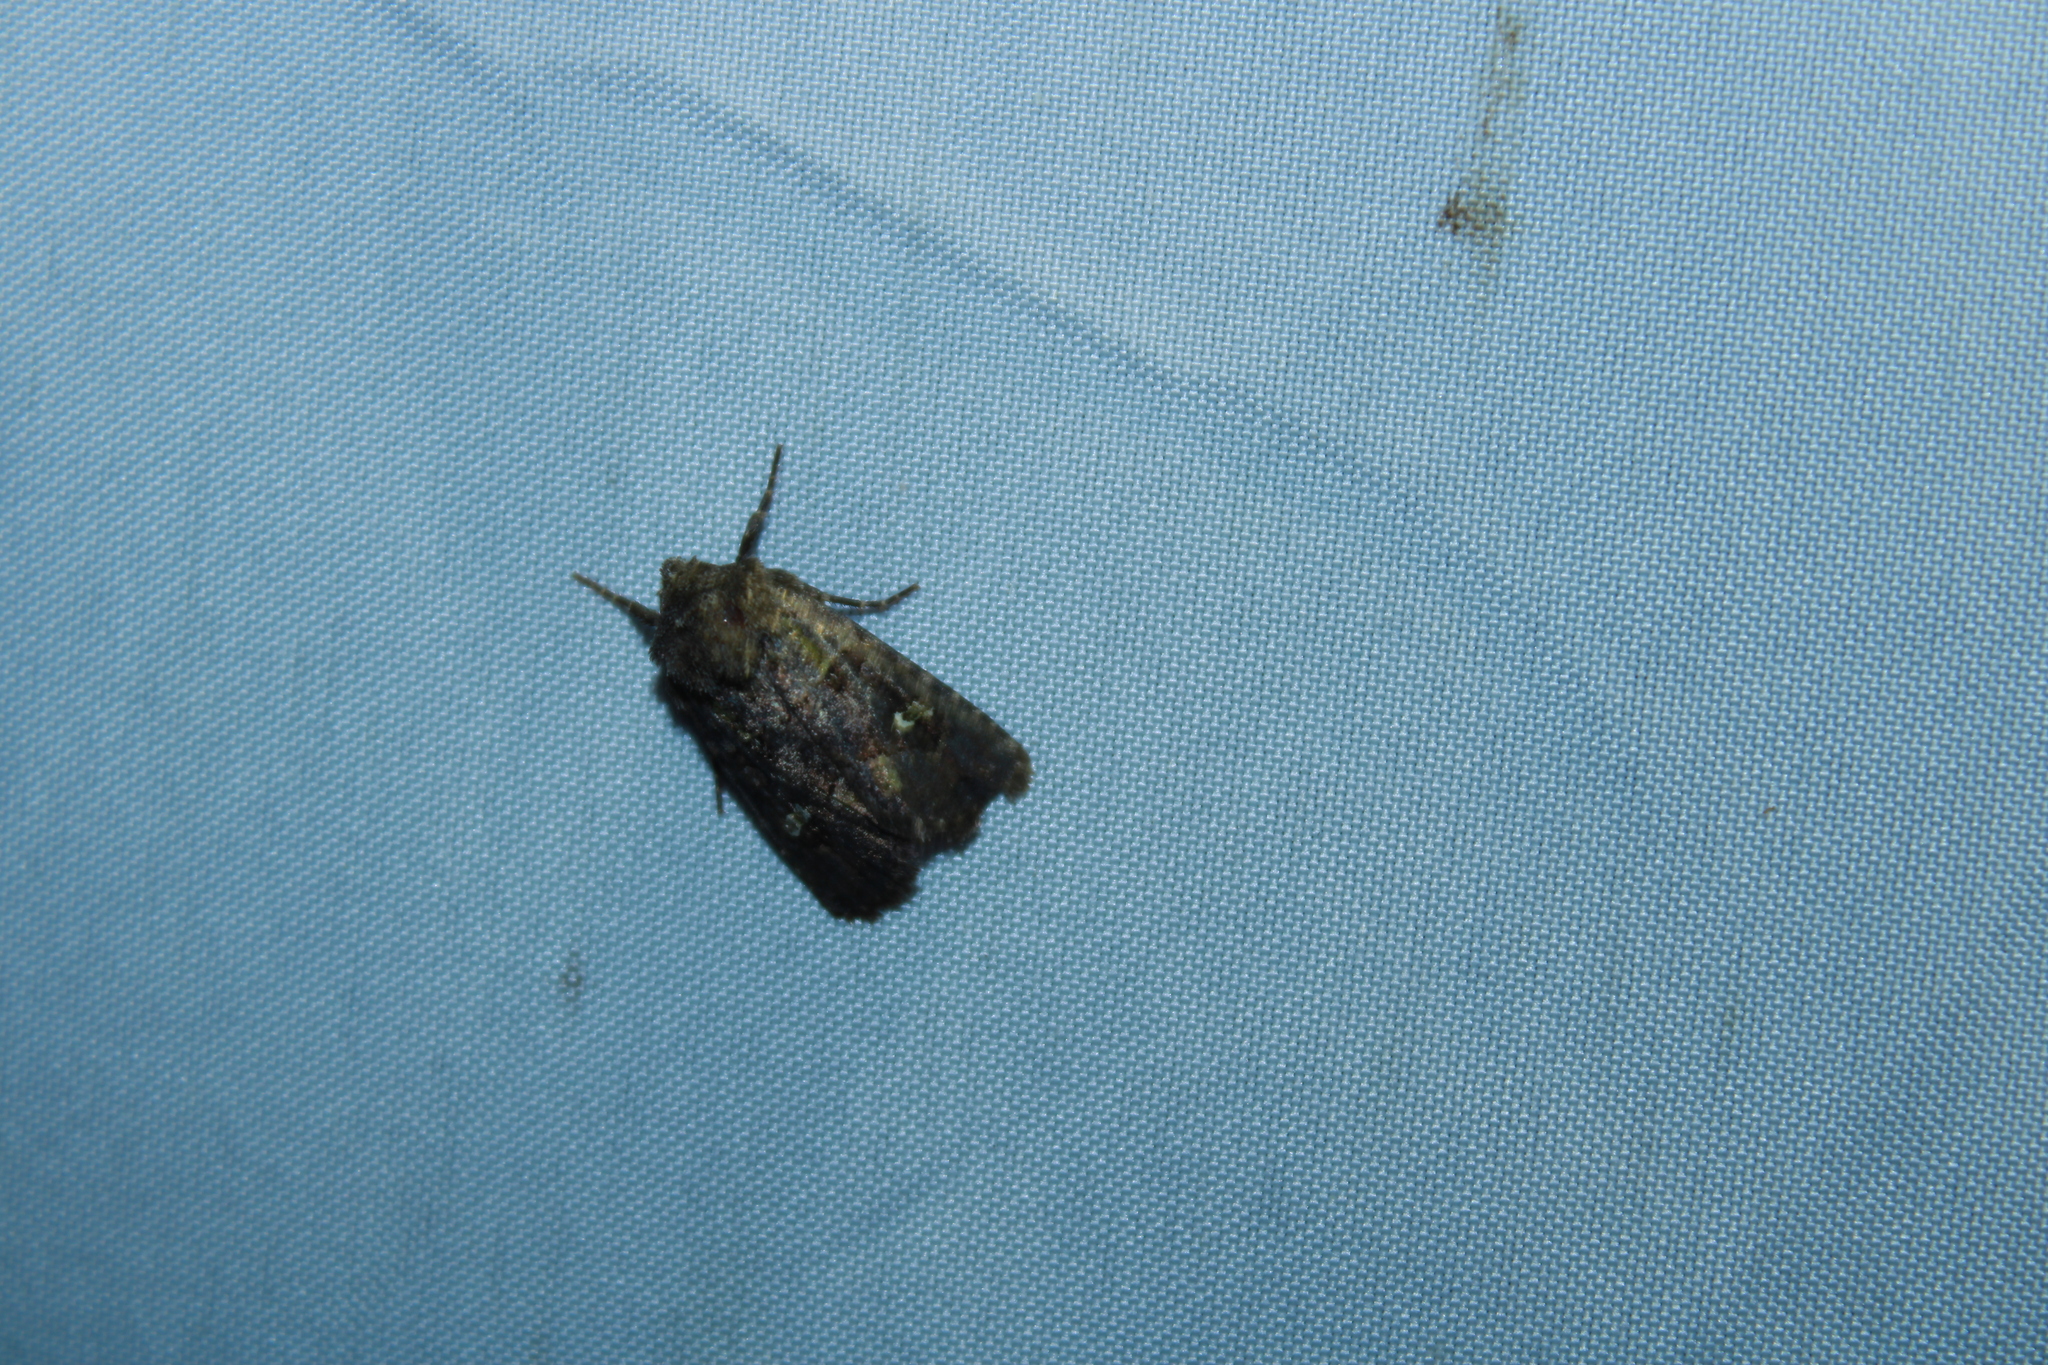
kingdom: Animalia
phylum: Arthropoda
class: Insecta
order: Lepidoptera
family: Noctuidae
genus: Lacinipolia
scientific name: Lacinipolia renigera
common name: Kidney-spotted minor
